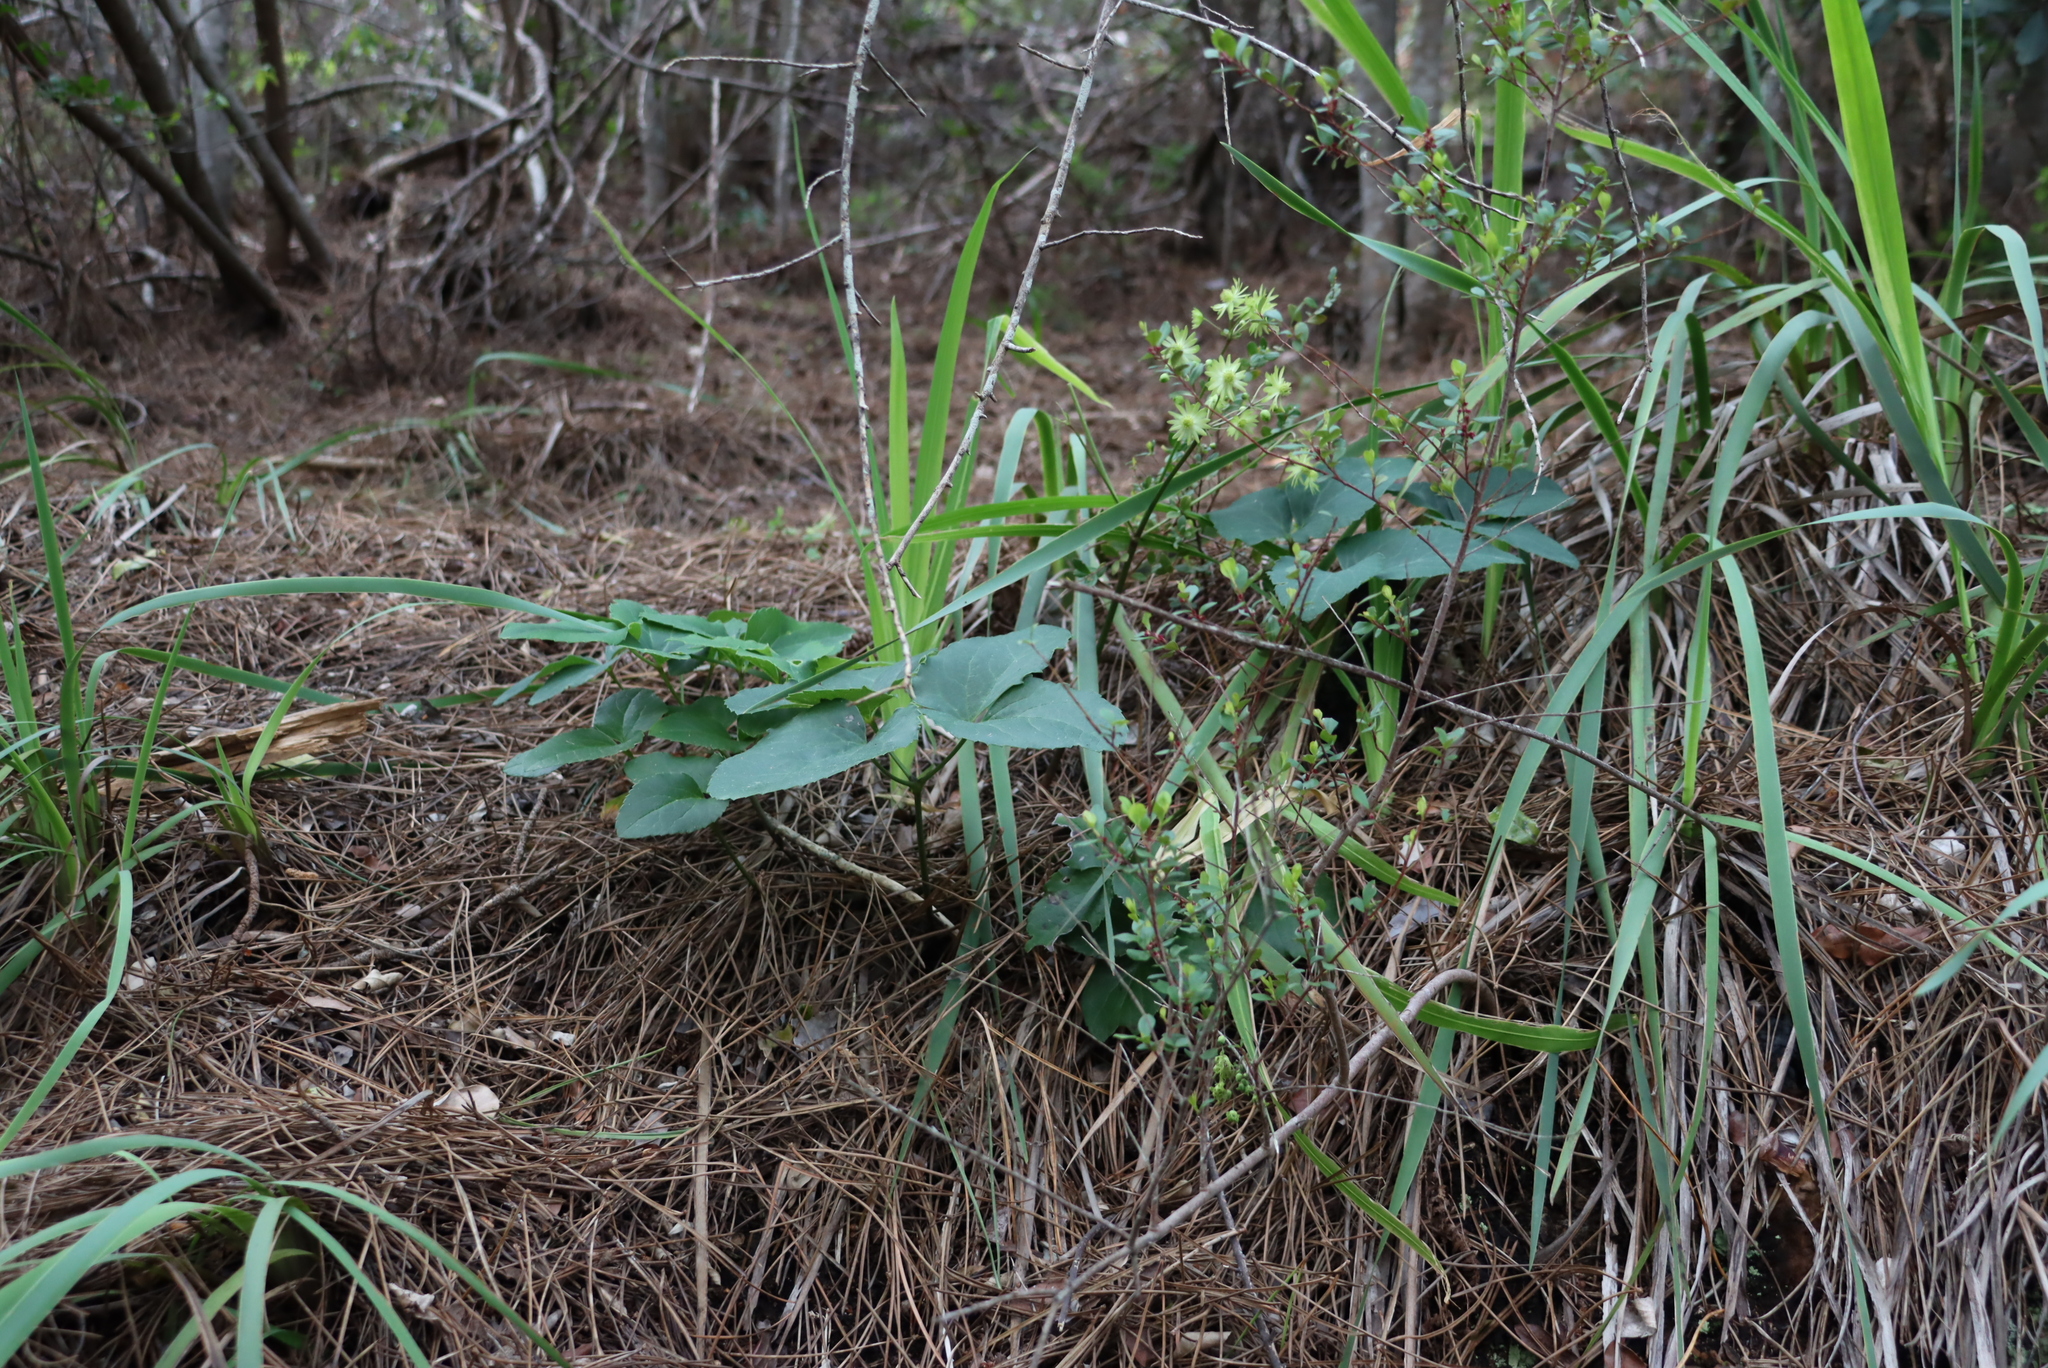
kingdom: Plantae
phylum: Tracheophyta
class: Magnoliopsida
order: Ranunculales
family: Ranunculaceae
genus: Knowltonia
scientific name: Knowltonia vesicatoria
